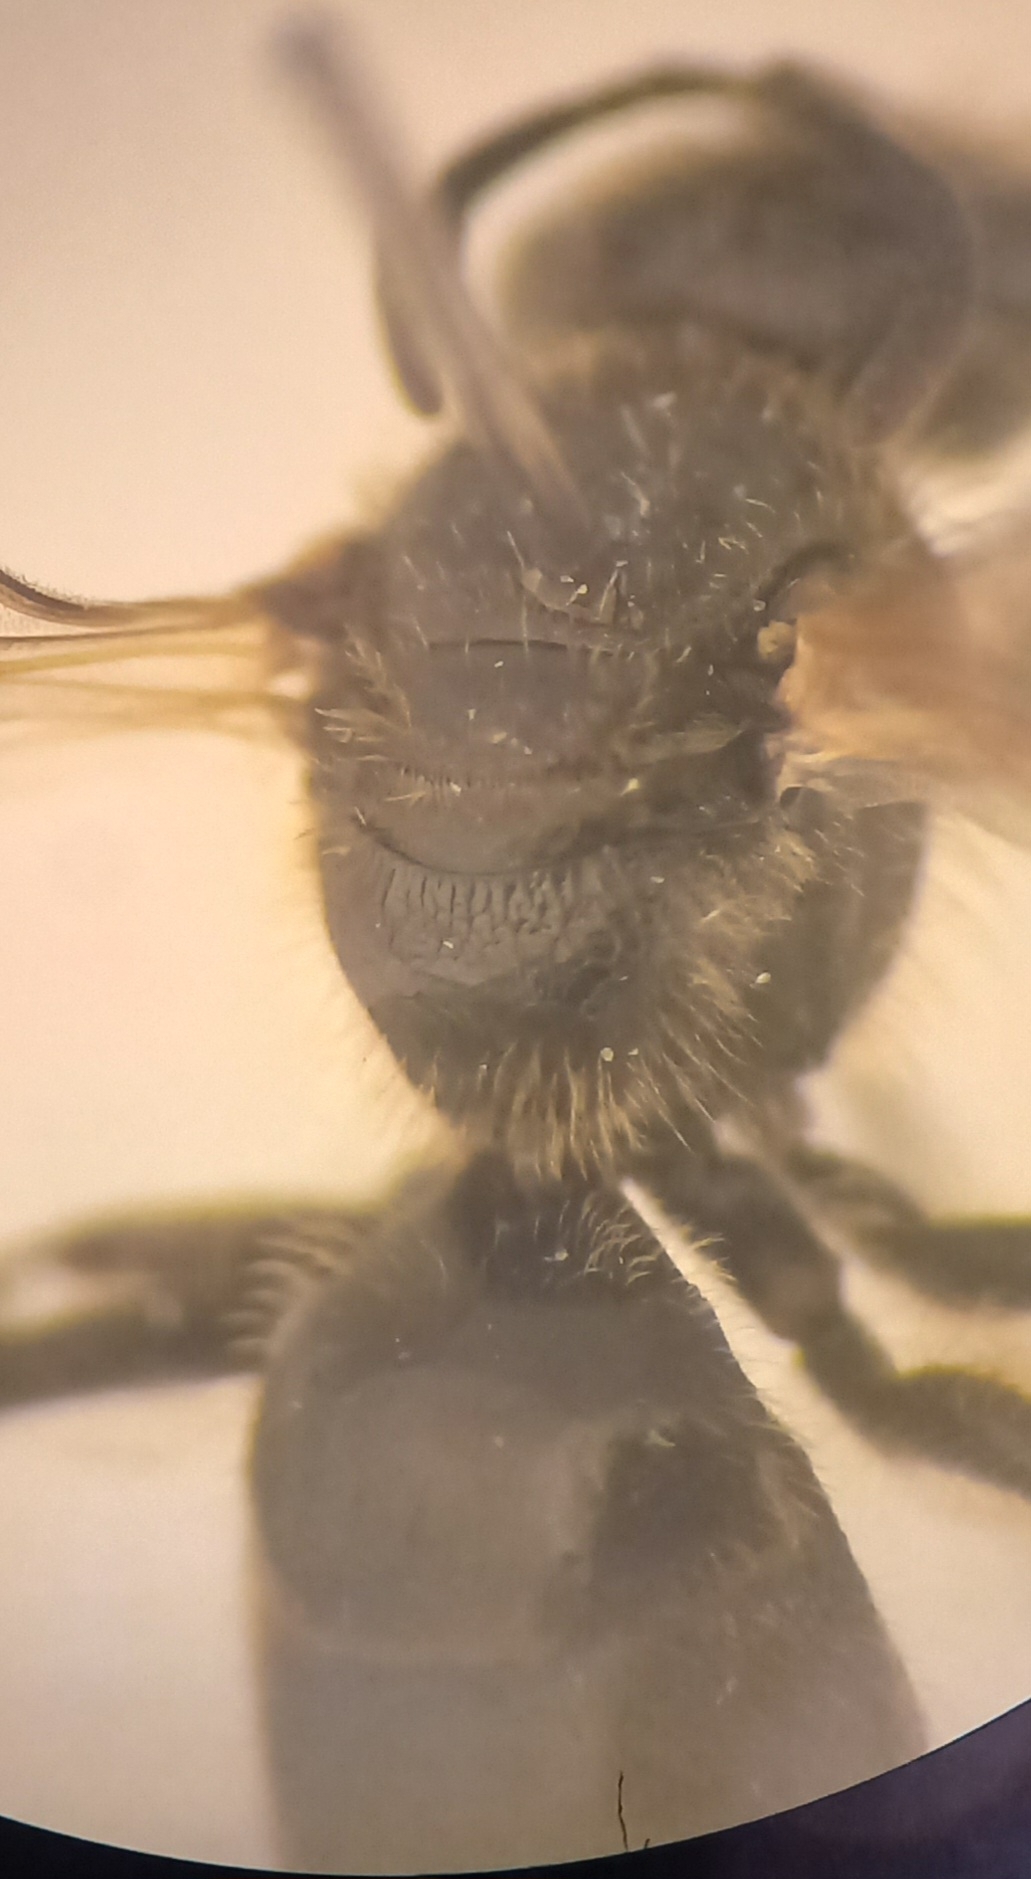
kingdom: Animalia
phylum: Arthropoda
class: Insecta
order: Hymenoptera
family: Halictidae
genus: Lasioglossum
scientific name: Lasioglossum pauxillum
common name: Lobe-spurred furrow bee
